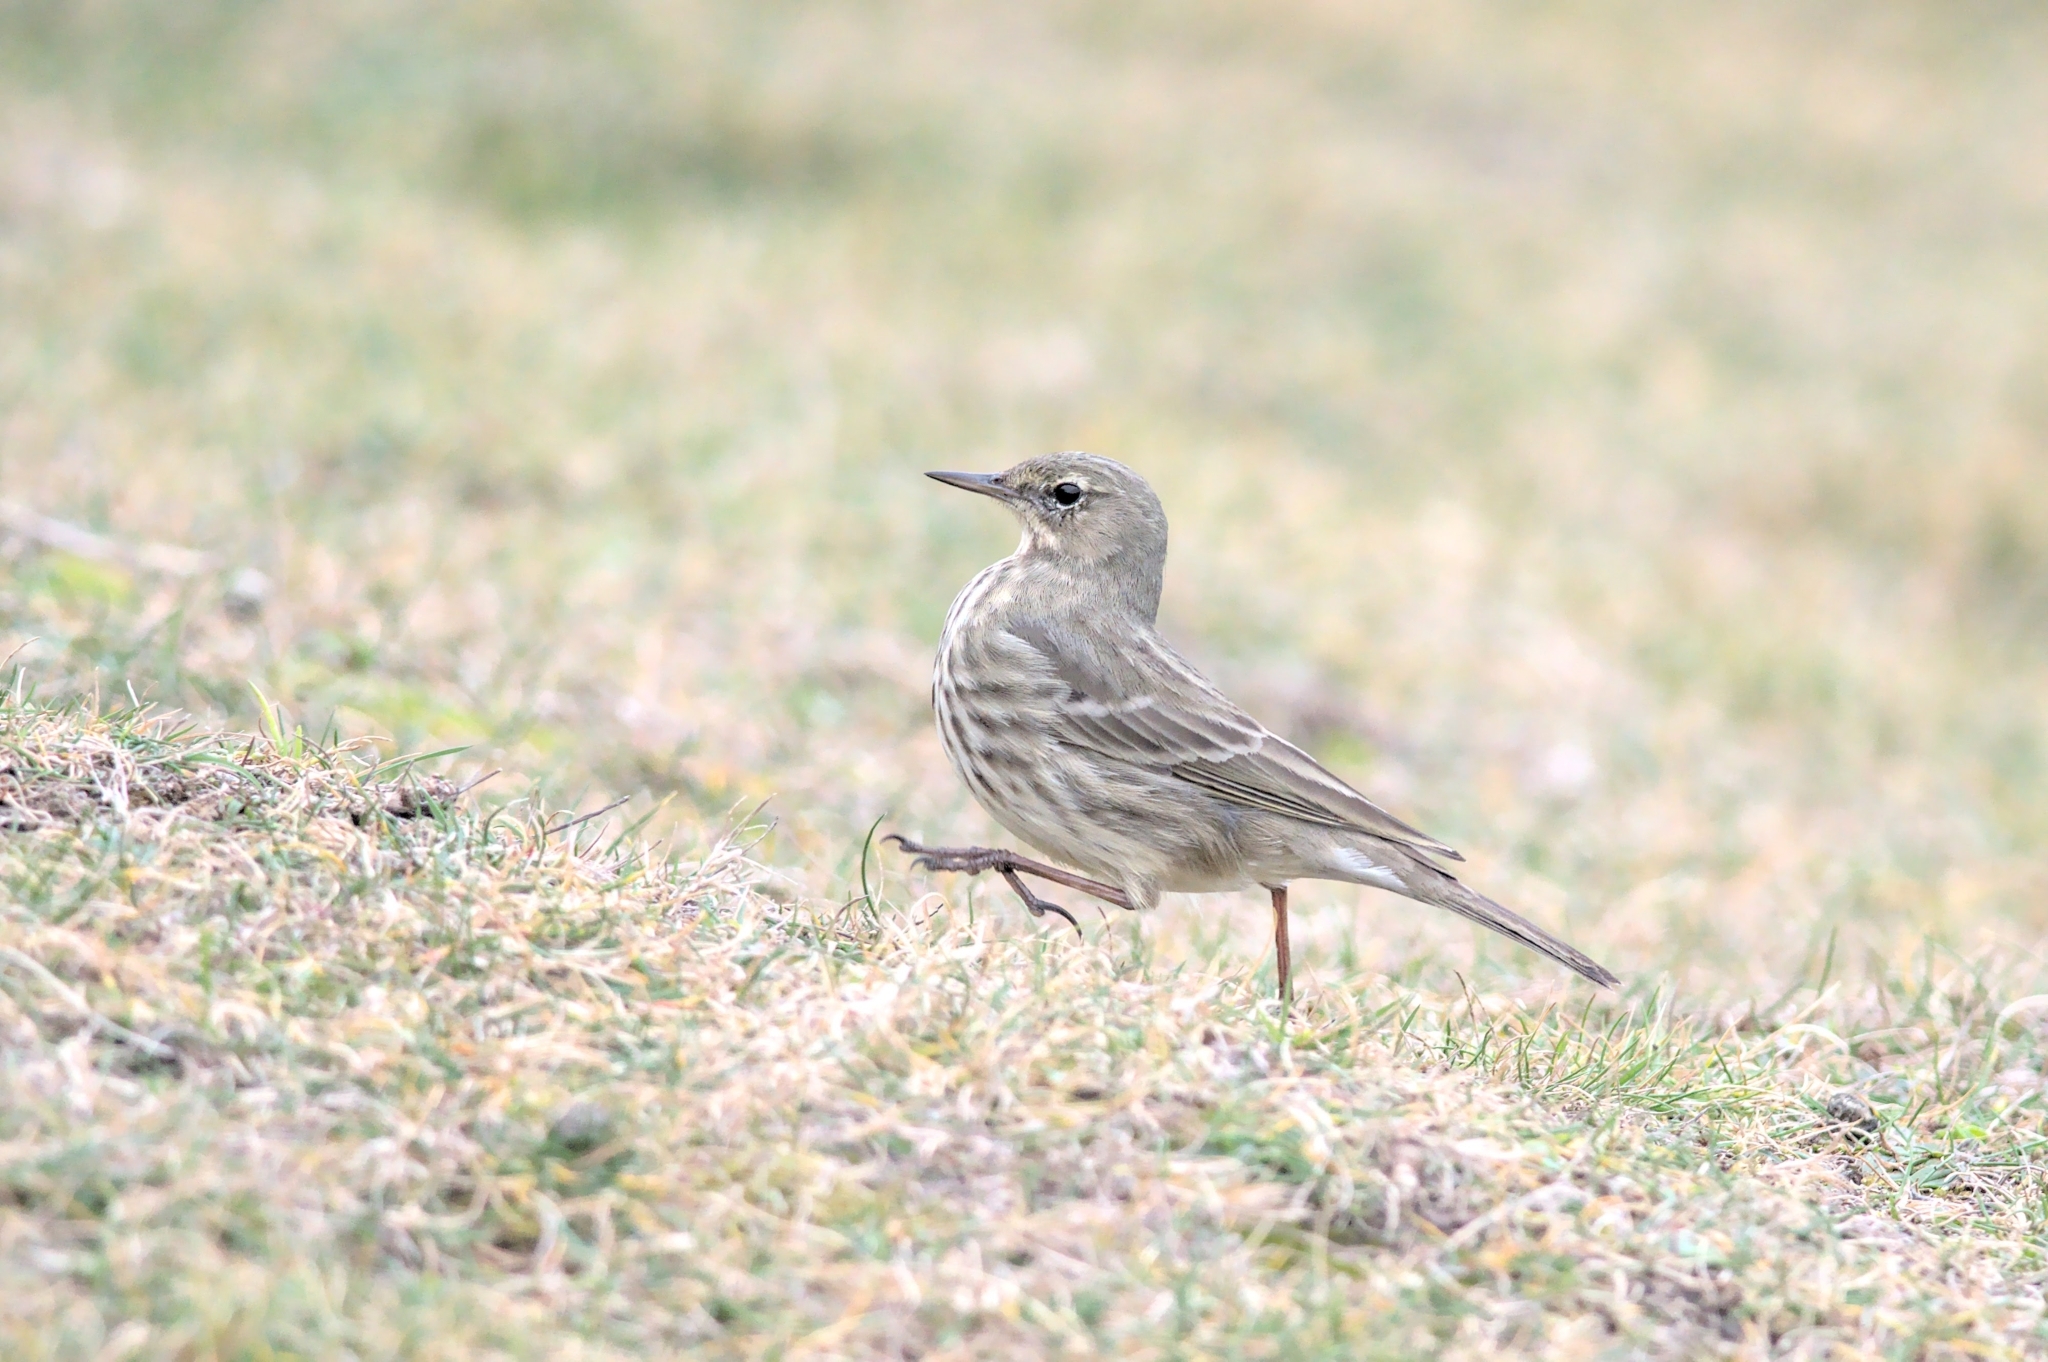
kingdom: Animalia
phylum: Chordata
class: Aves
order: Passeriformes
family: Motacillidae
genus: Anthus
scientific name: Anthus petrosus
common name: Eurasian rock pipit
